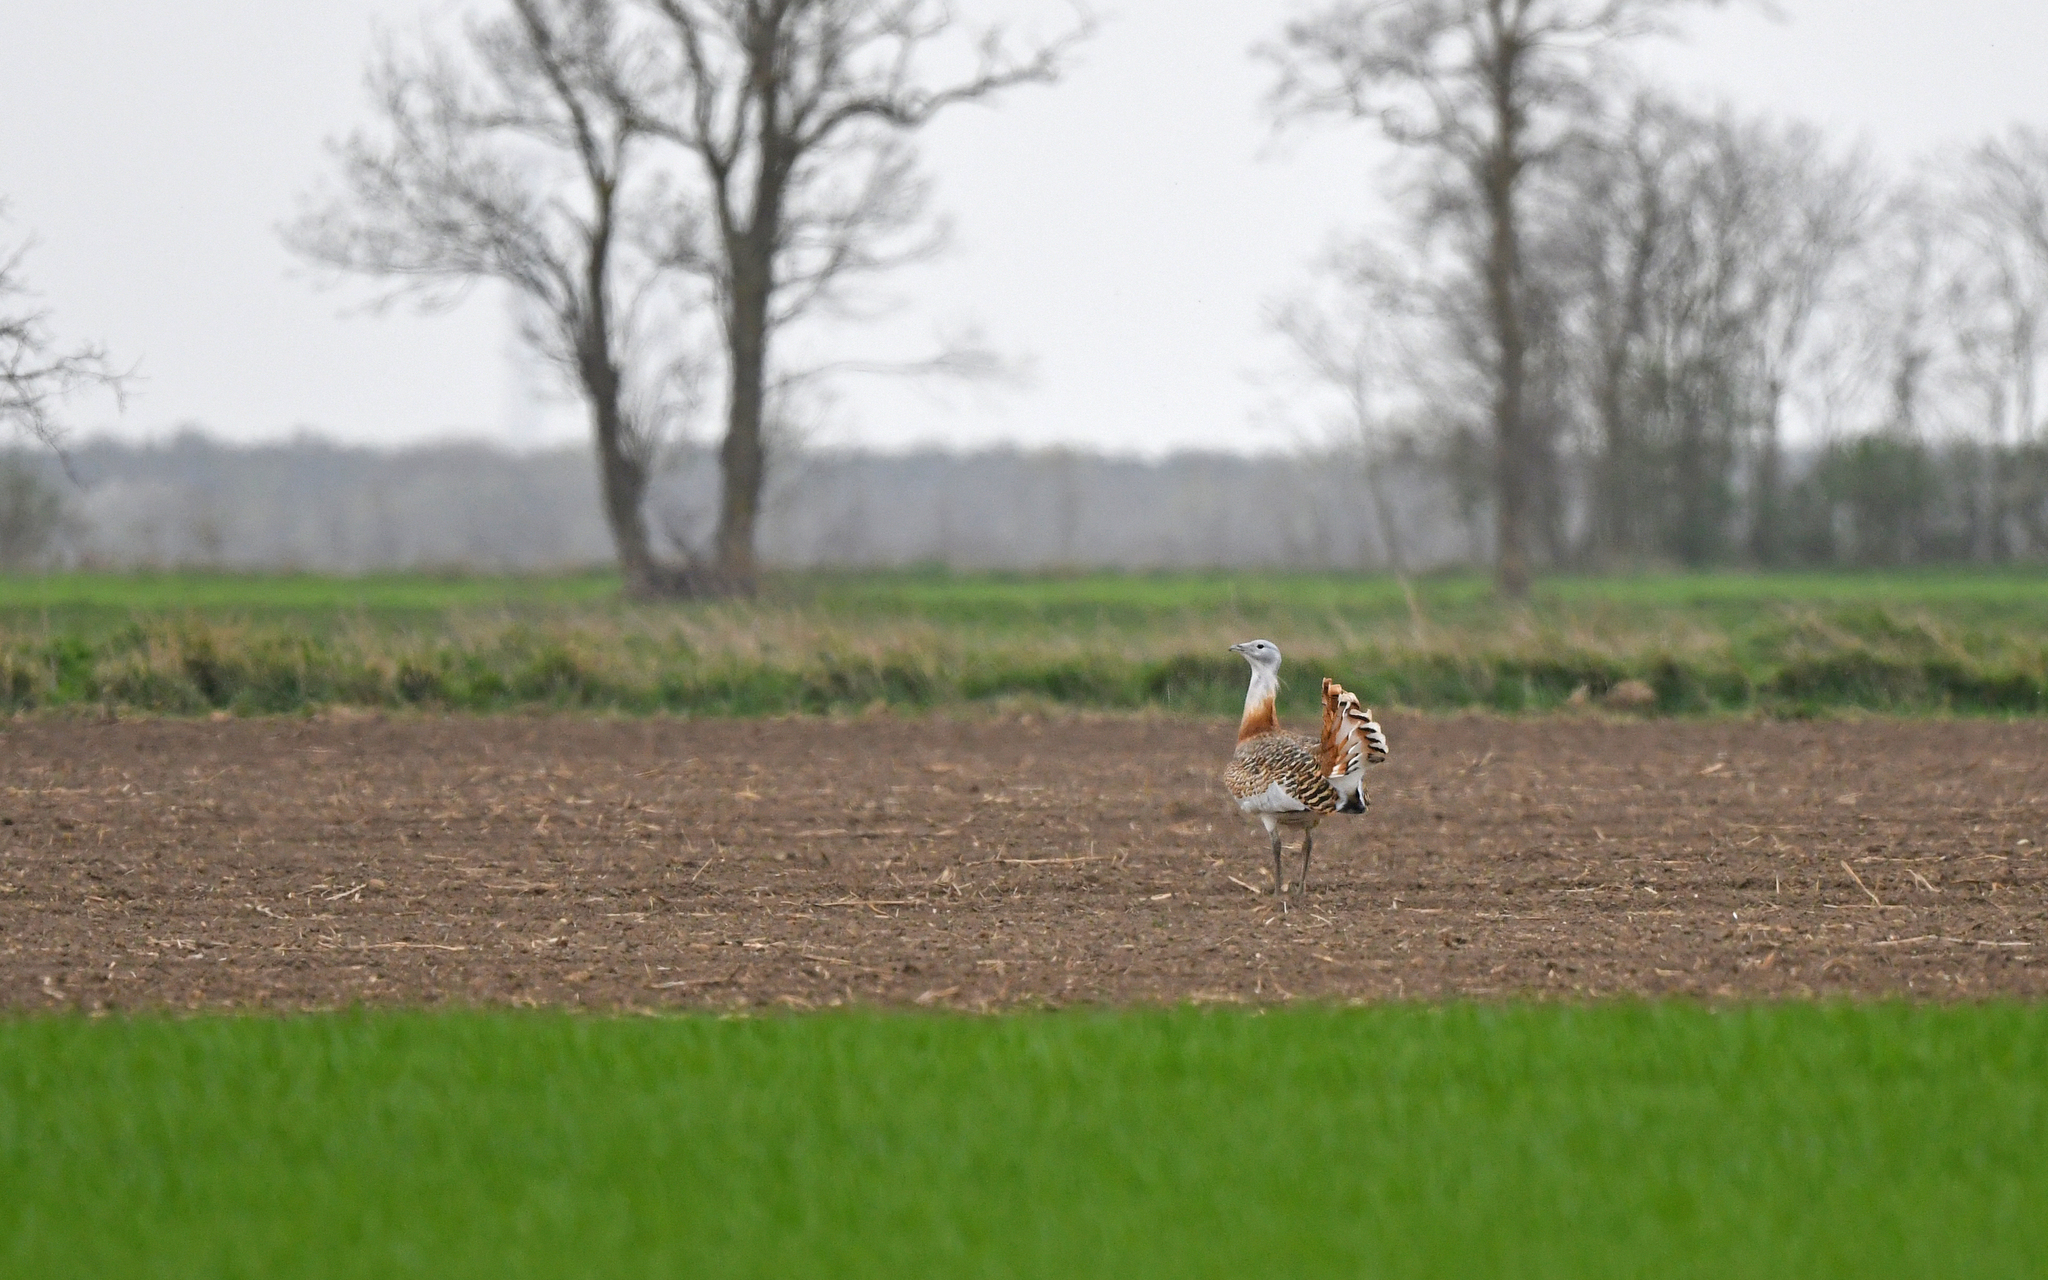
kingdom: Animalia
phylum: Chordata
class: Aves
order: Otidiformes
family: Otididae
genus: Otis
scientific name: Otis tarda
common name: Great bustard
